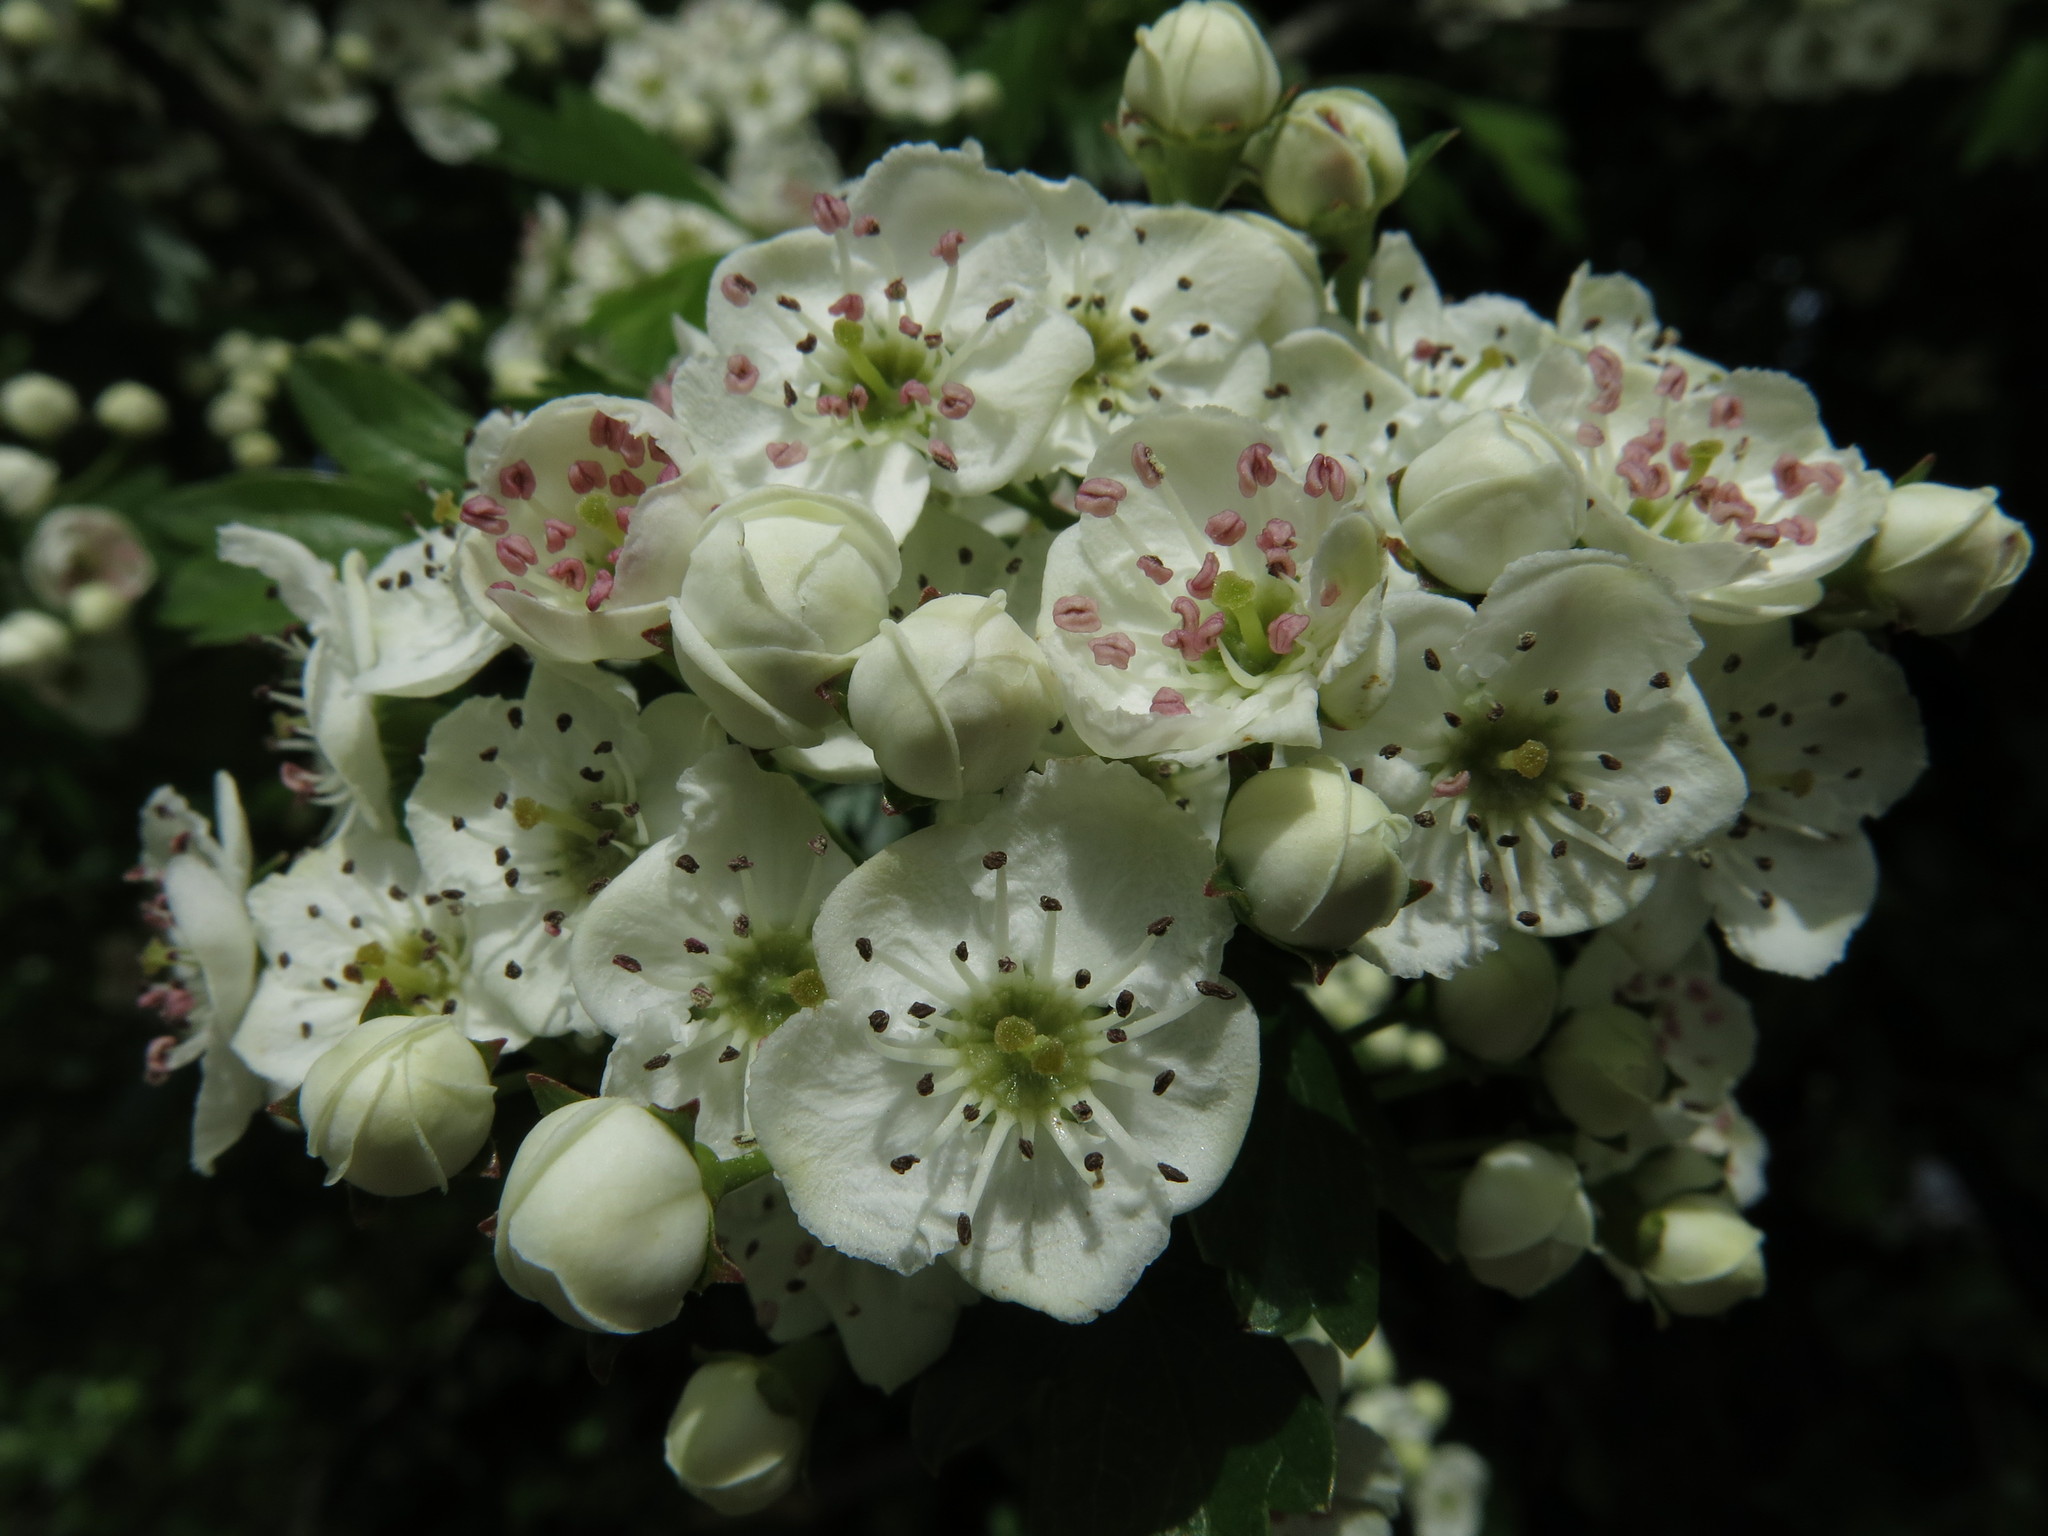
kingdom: Plantae
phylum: Tracheophyta
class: Magnoliopsida
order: Rosales
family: Rosaceae
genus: Crataegus
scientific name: Crataegus monogyna
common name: Hawthorn
